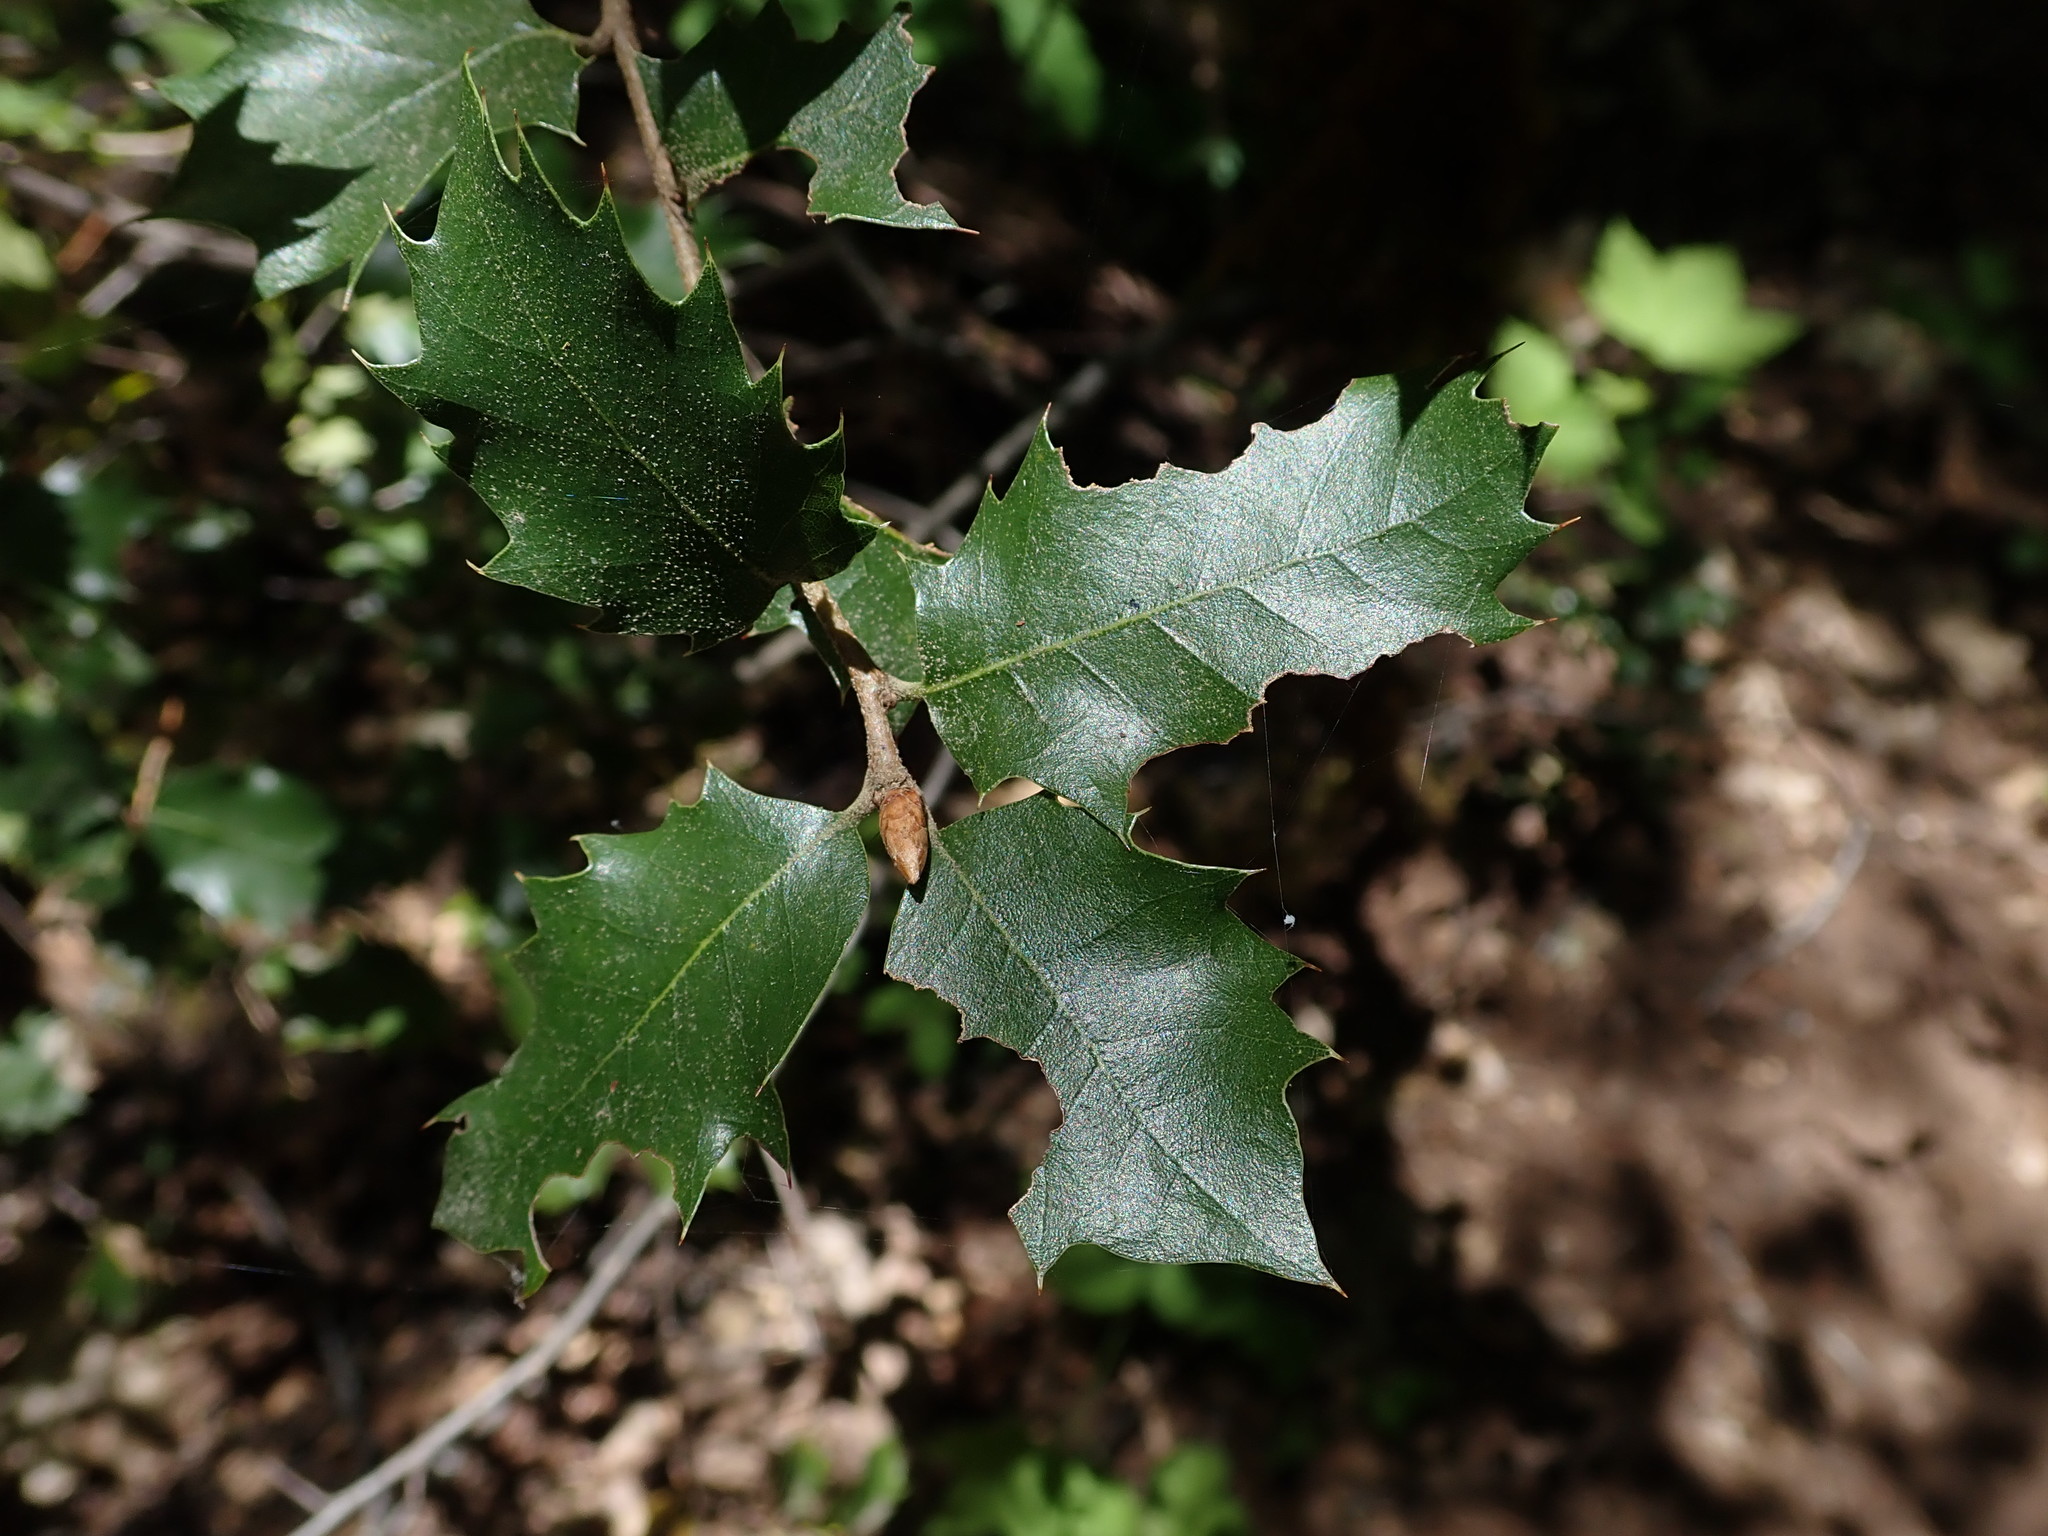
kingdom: Plantae
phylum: Tracheophyta
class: Magnoliopsida
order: Fagales
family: Fagaceae
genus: Quercus
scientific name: Quercus chrysolepis
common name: Canyon live oak
